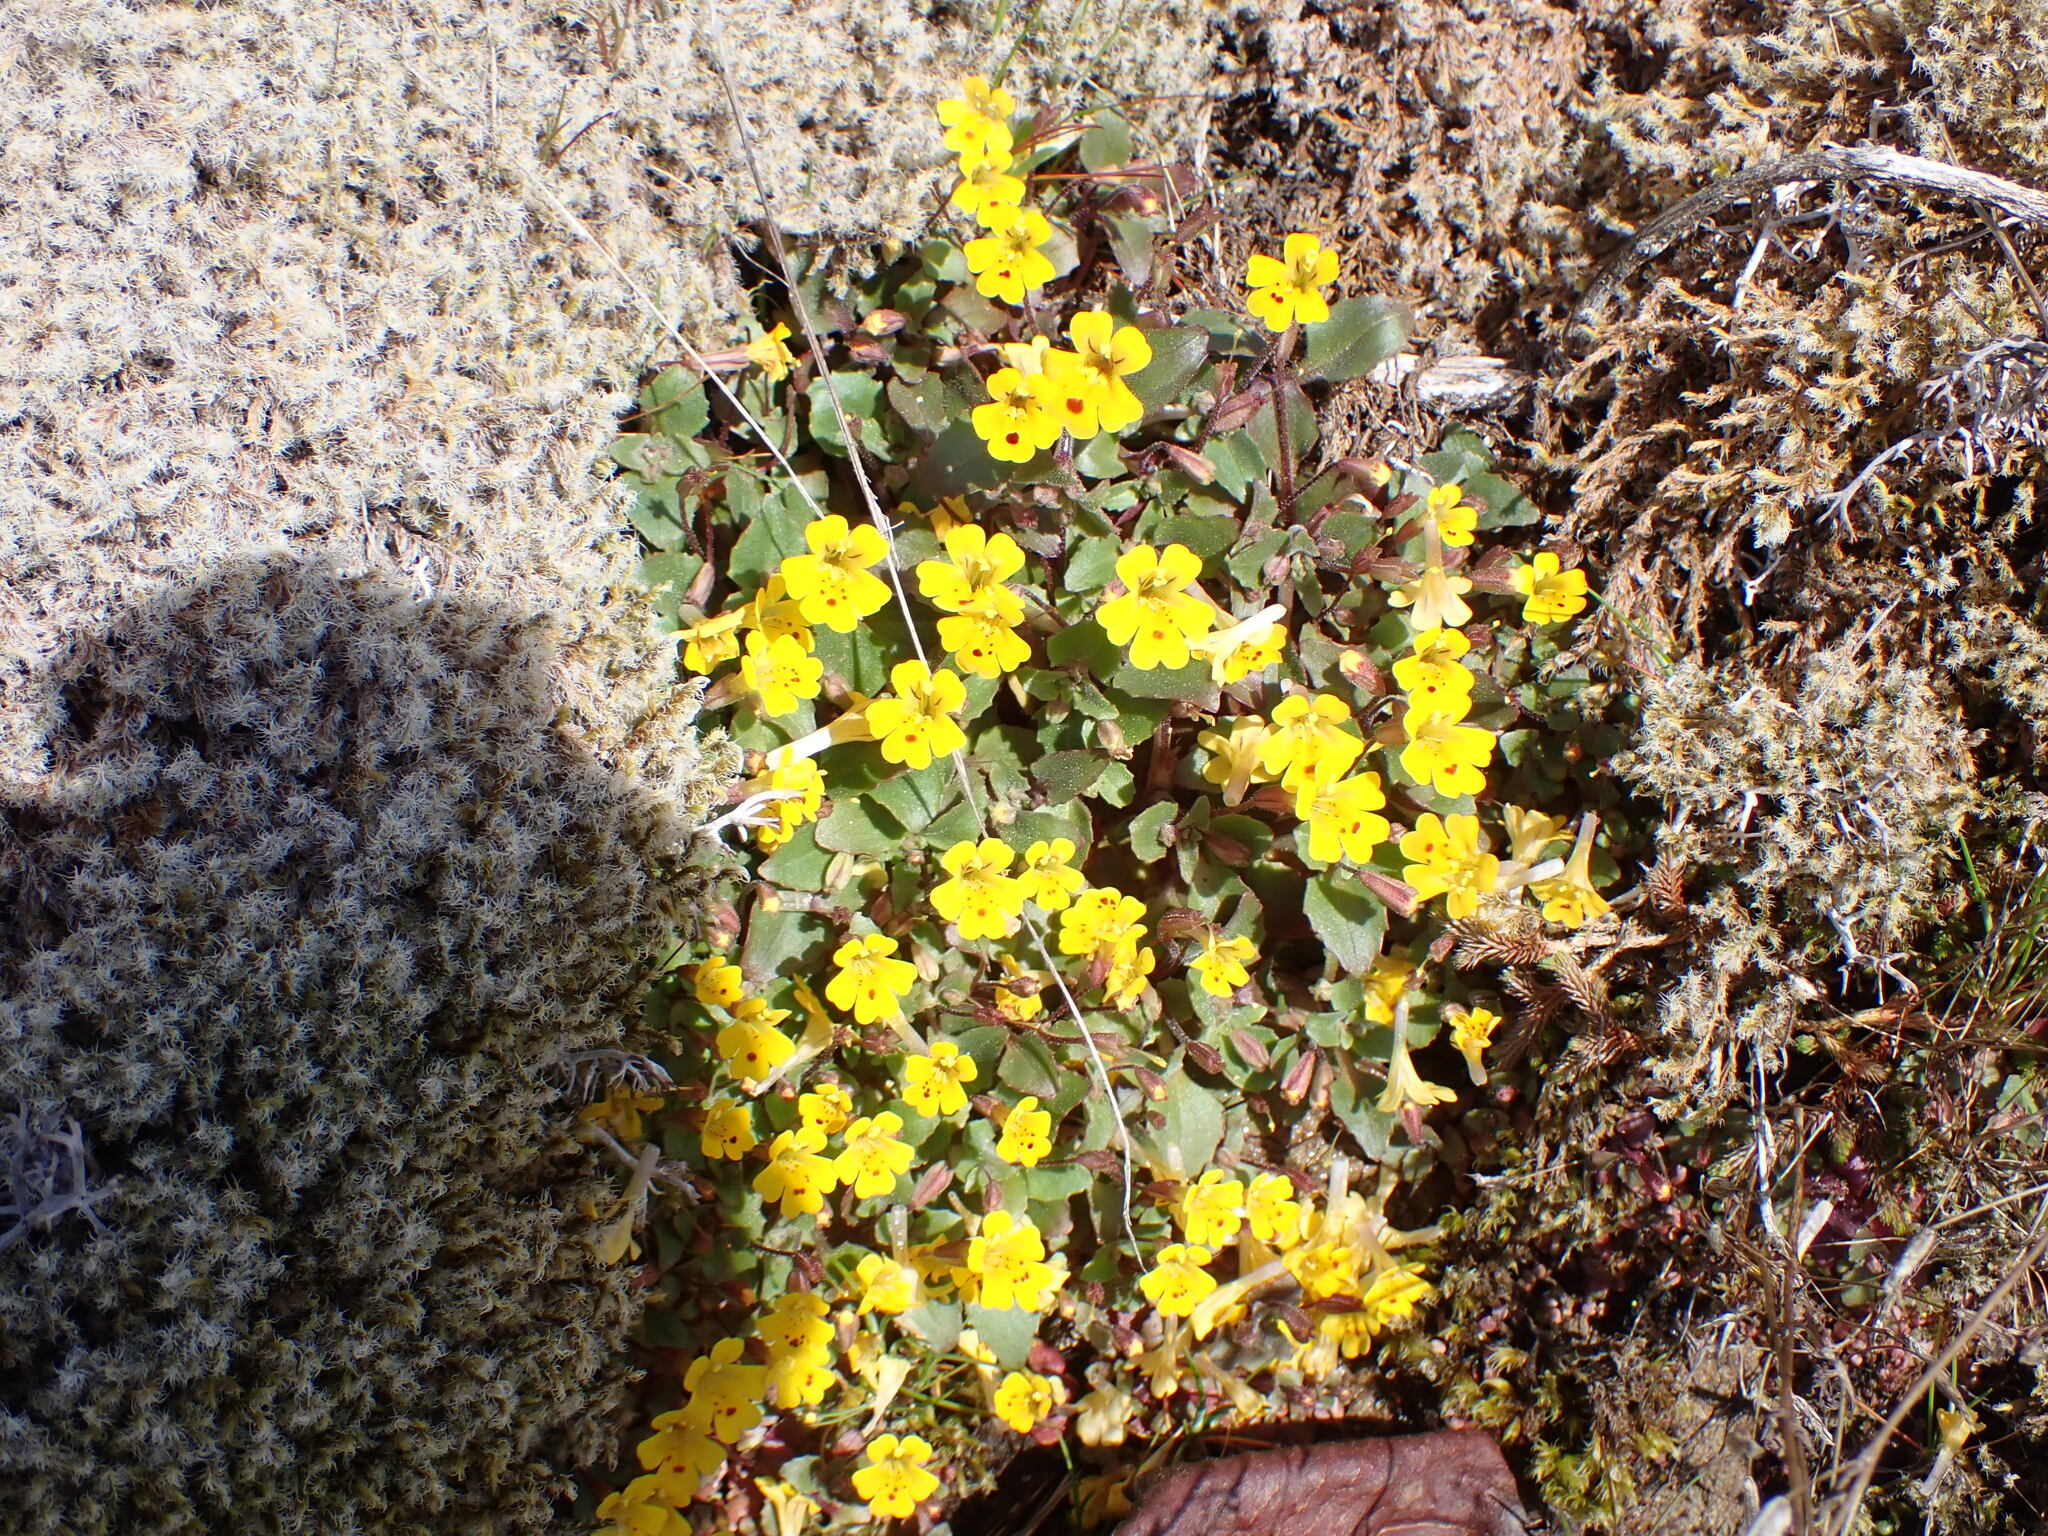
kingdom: Plantae
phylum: Tracheophyta
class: Magnoliopsida
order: Lamiales
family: Phrymaceae
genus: Erythranthe
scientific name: Erythranthe alsinoides
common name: Chickweed monkeyflower
